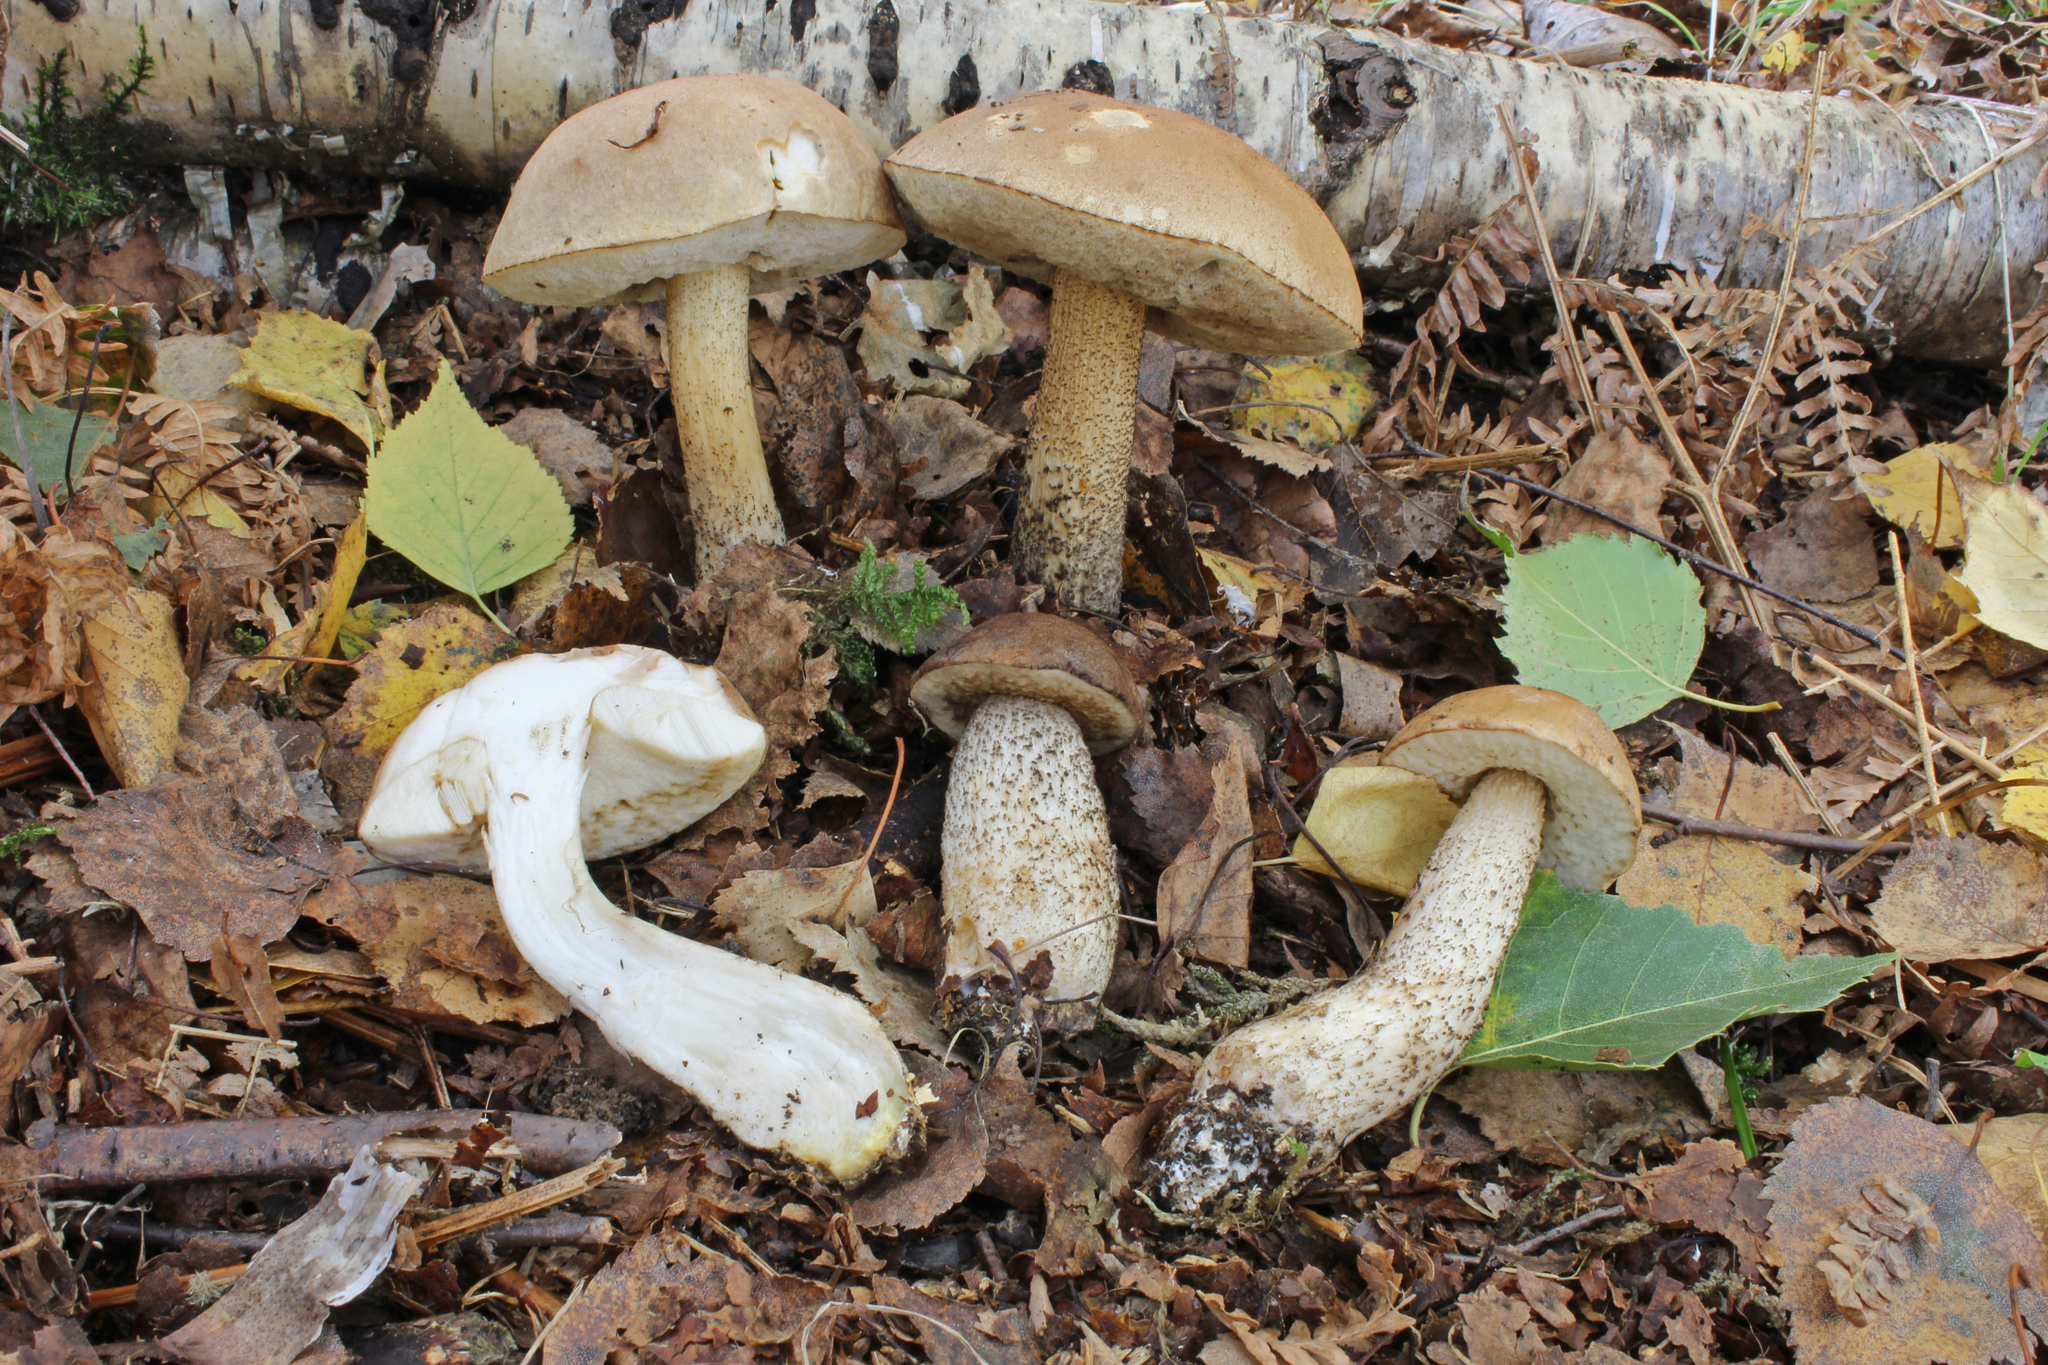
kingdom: Fungi
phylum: Basidiomycota
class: Agaricomycetes
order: Boletales
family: Boletaceae
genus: Leccinum
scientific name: Leccinum scabrum
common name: Blushing bolete
